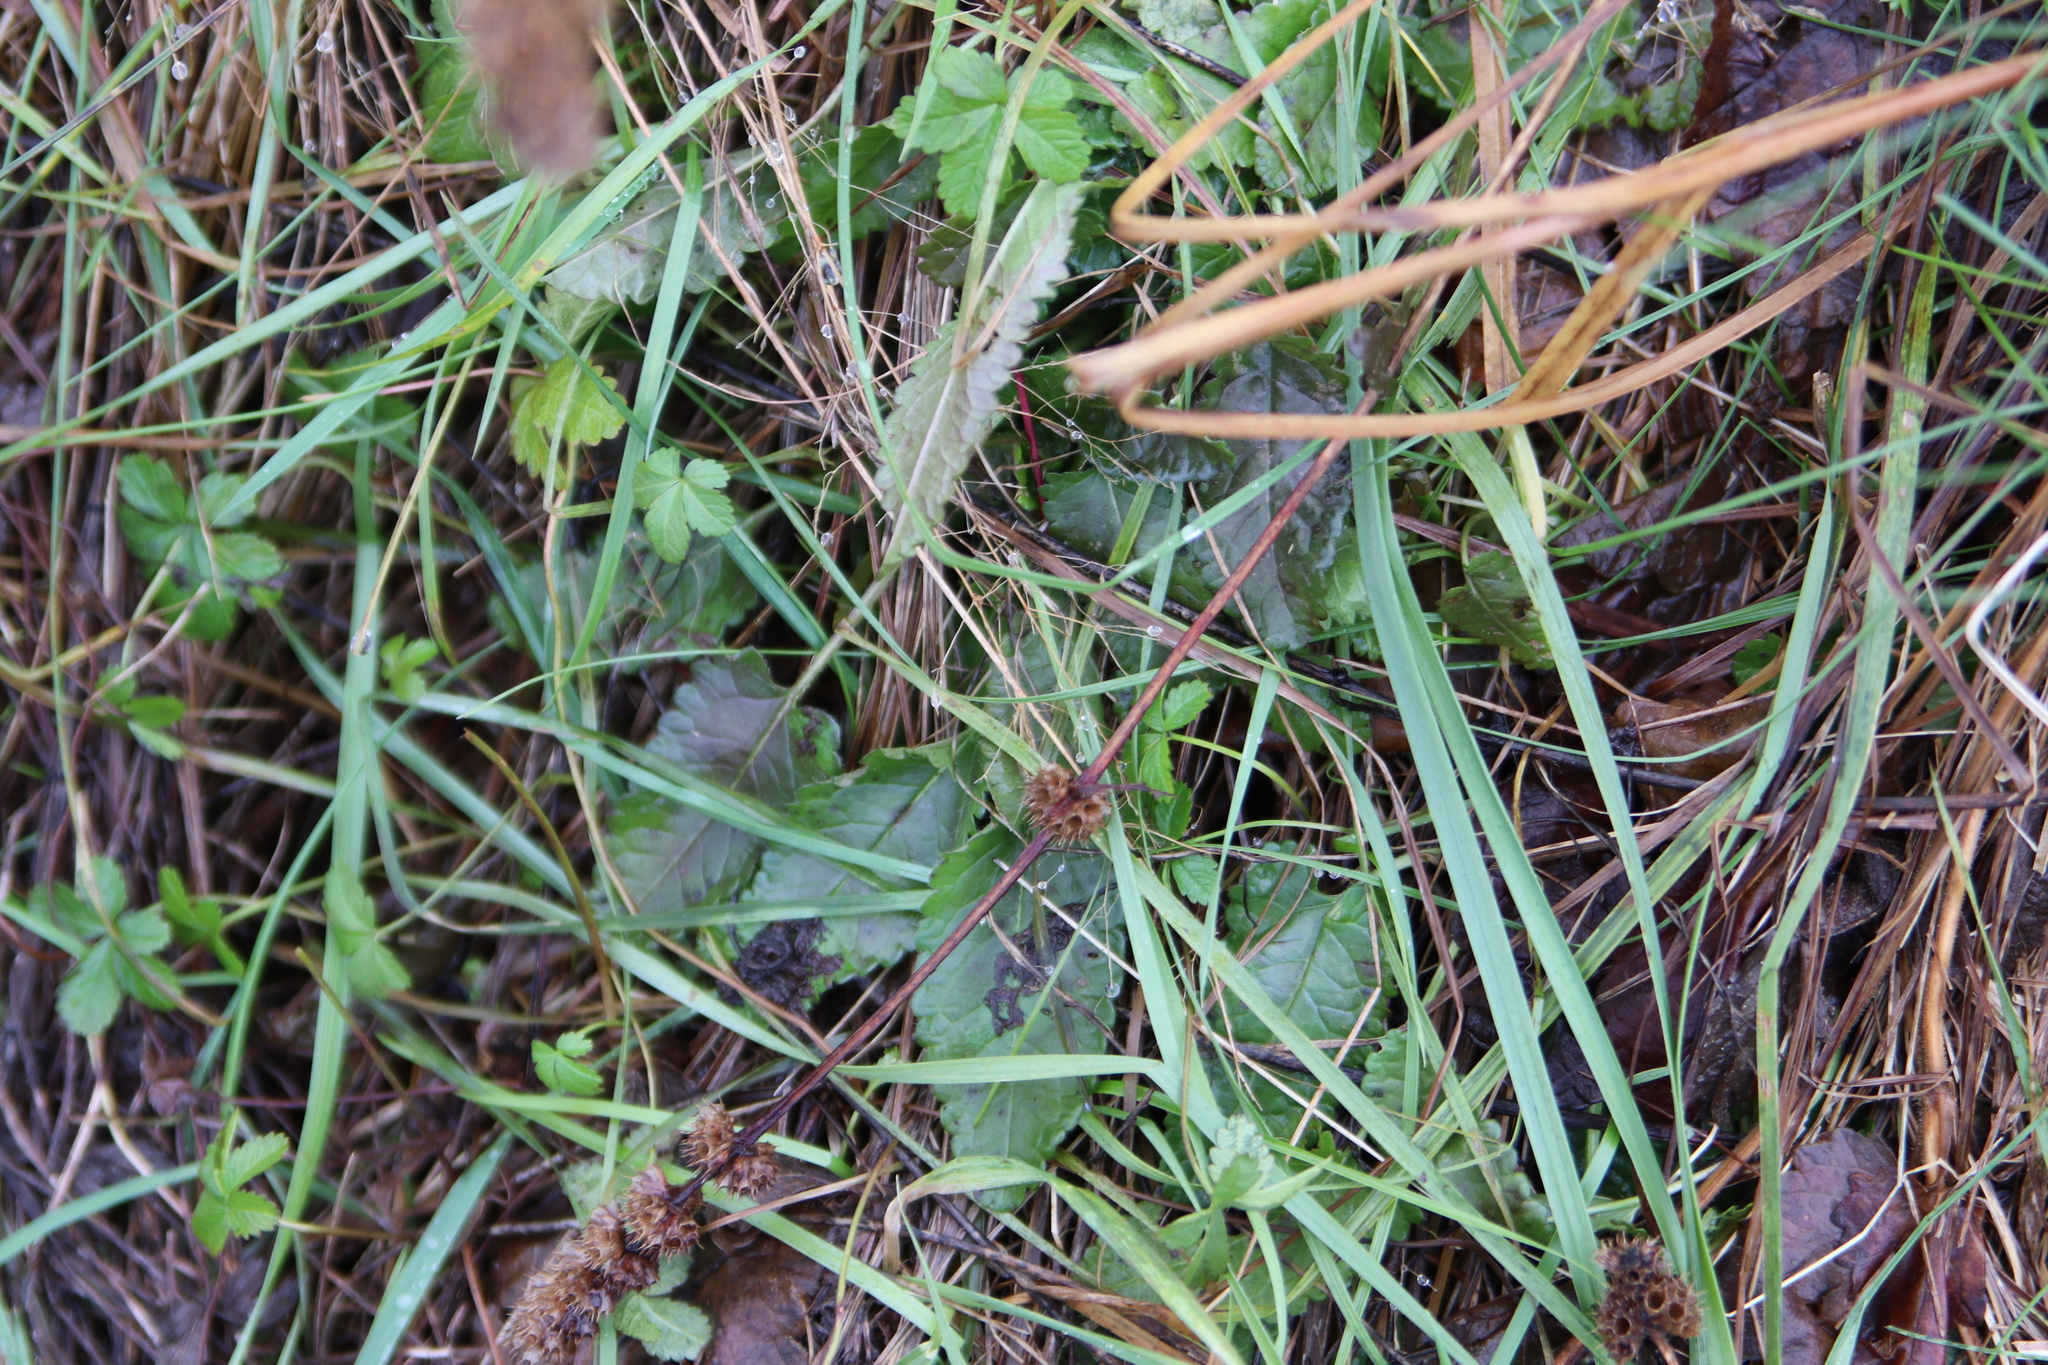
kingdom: Plantae
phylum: Tracheophyta
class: Magnoliopsida
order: Lamiales
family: Lamiaceae
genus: Betonica
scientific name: Betonica officinalis
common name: Bishop's-wort
